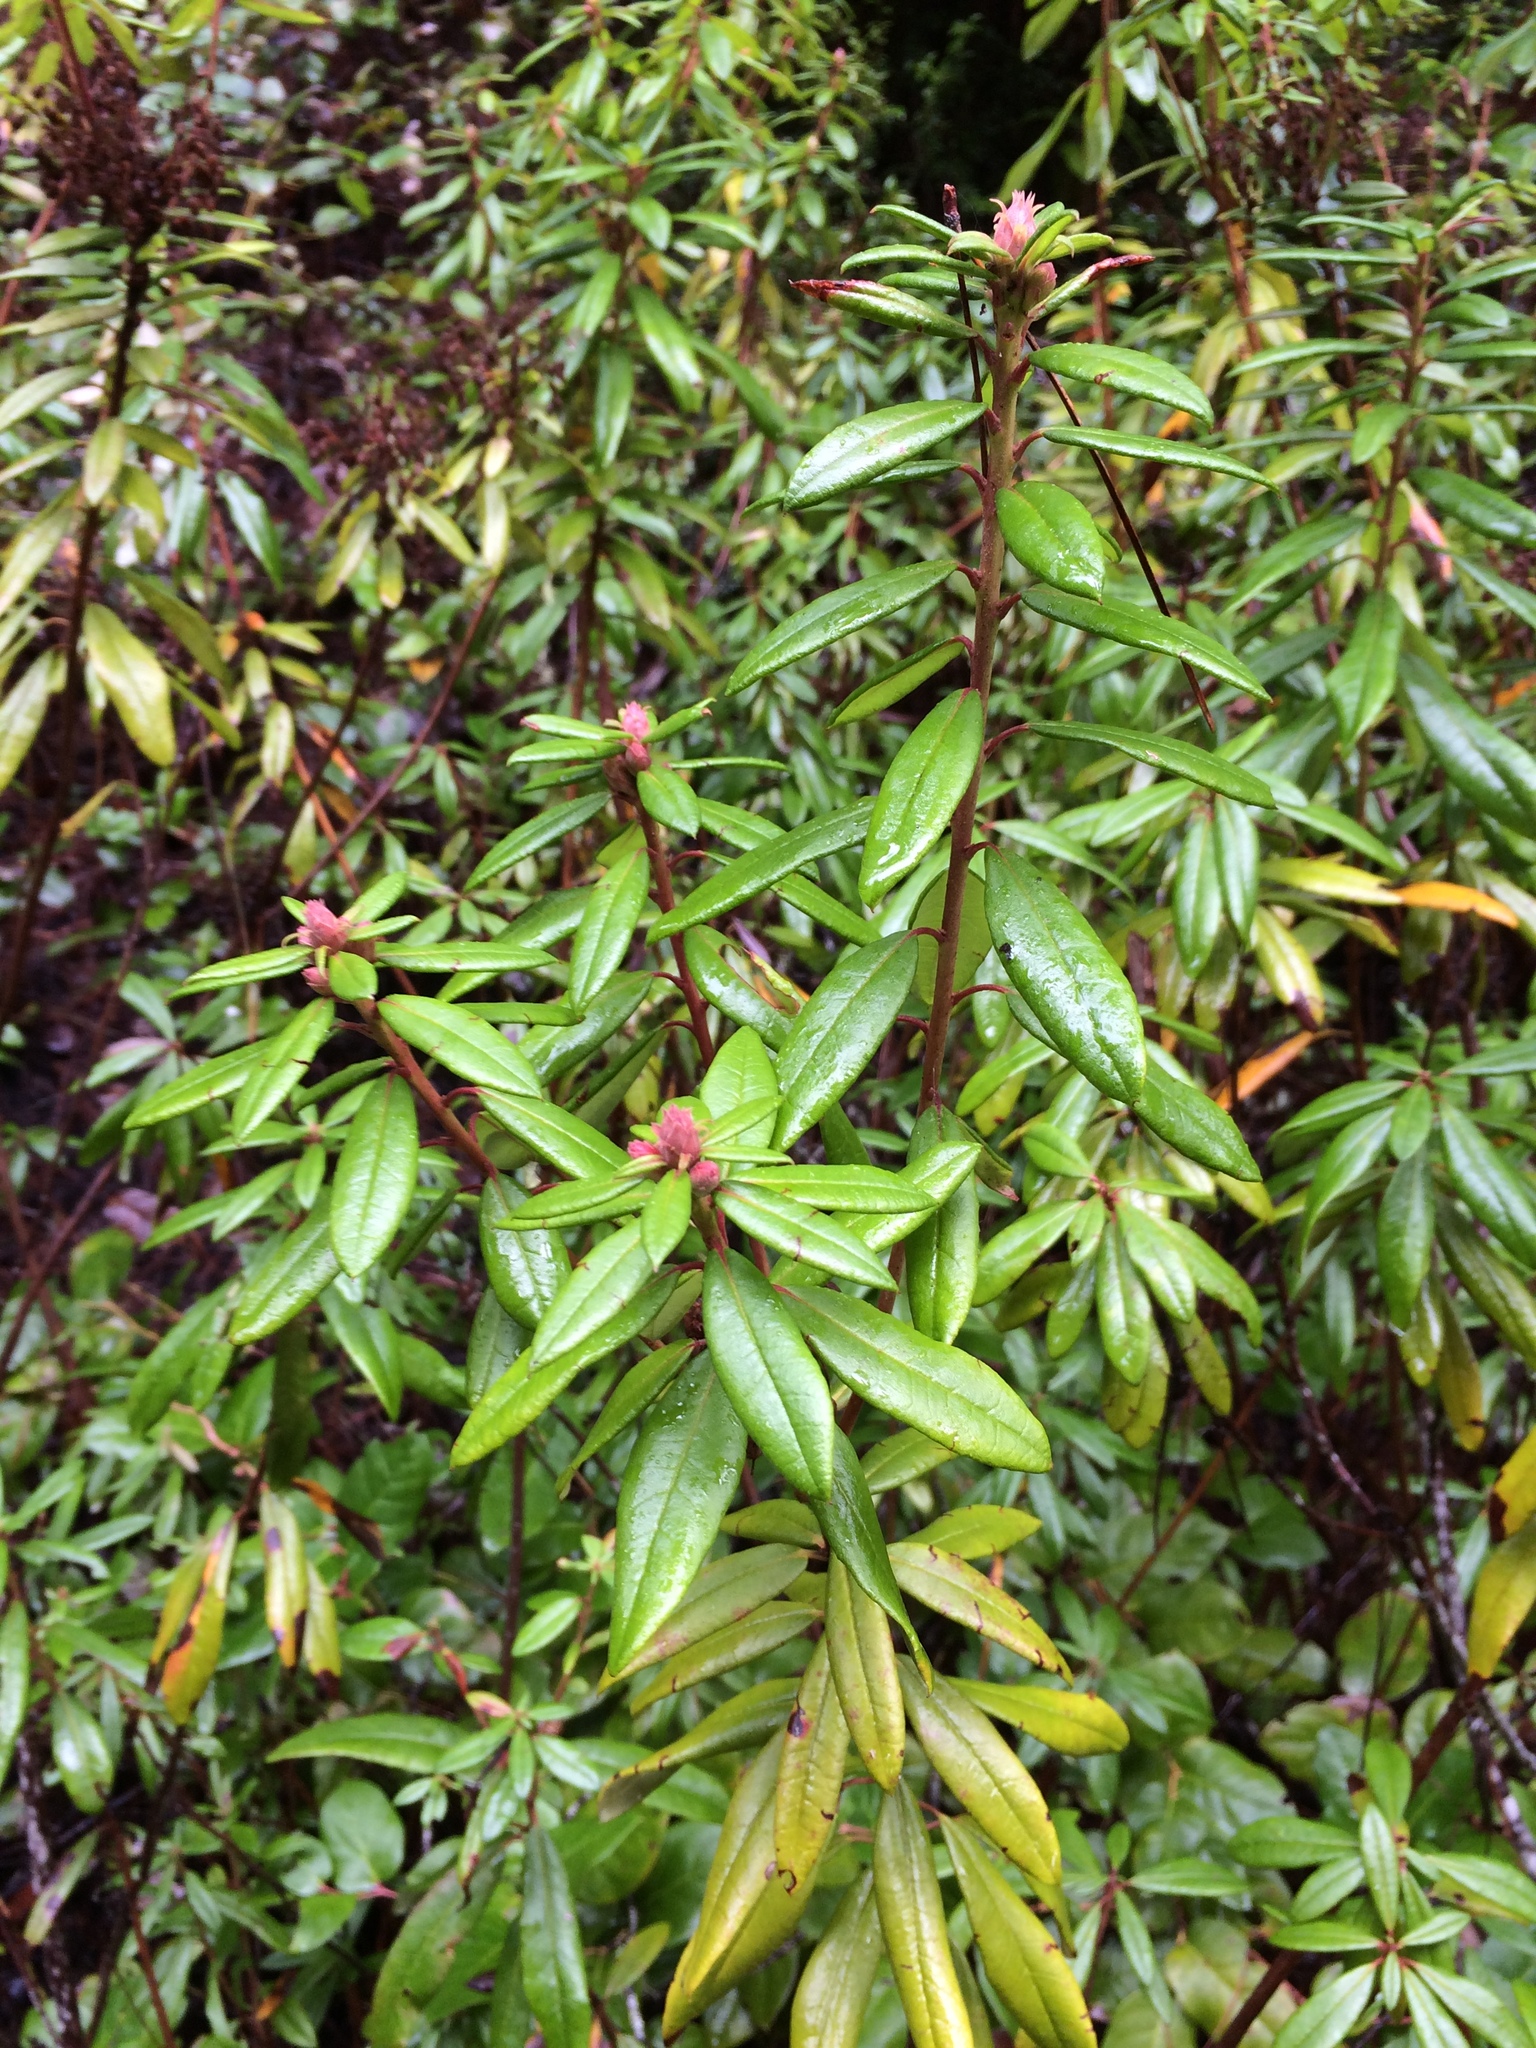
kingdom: Plantae
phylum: Tracheophyta
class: Magnoliopsida
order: Ericales
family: Ericaceae
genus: Rhododendron
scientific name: Rhododendron columbianum
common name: Western labrador tea
